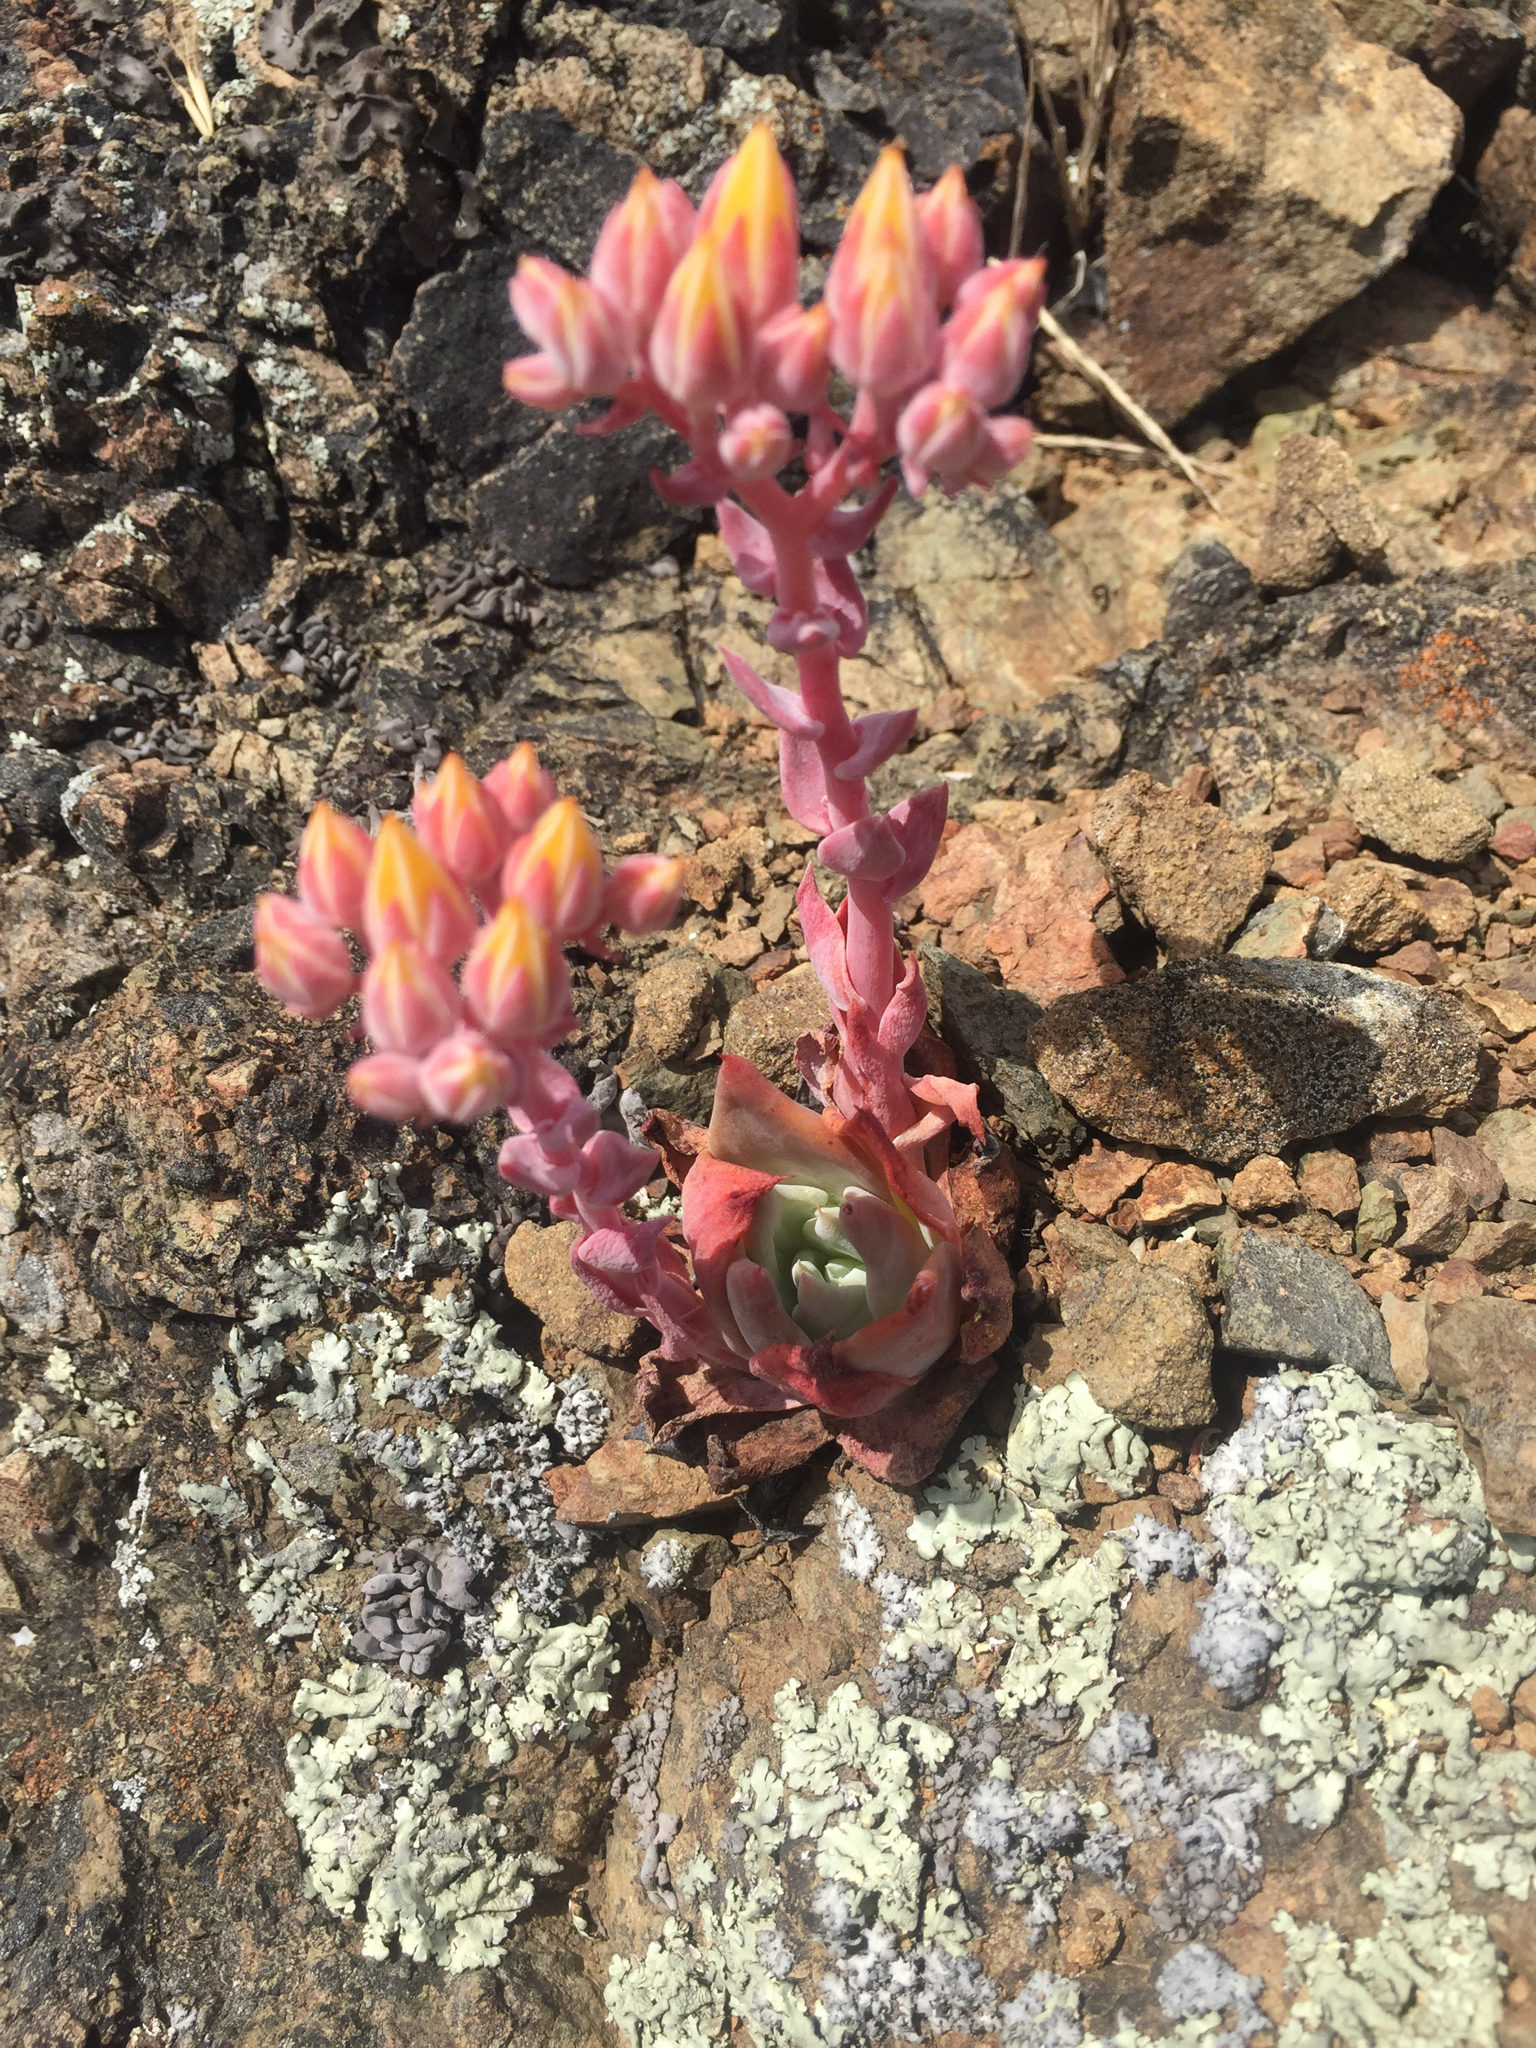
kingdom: Plantae
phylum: Tracheophyta
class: Magnoliopsida
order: Saxifragales
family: Crassulaceae
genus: Dudleya
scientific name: Dudleya cymosa
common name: Canyon dudleya
